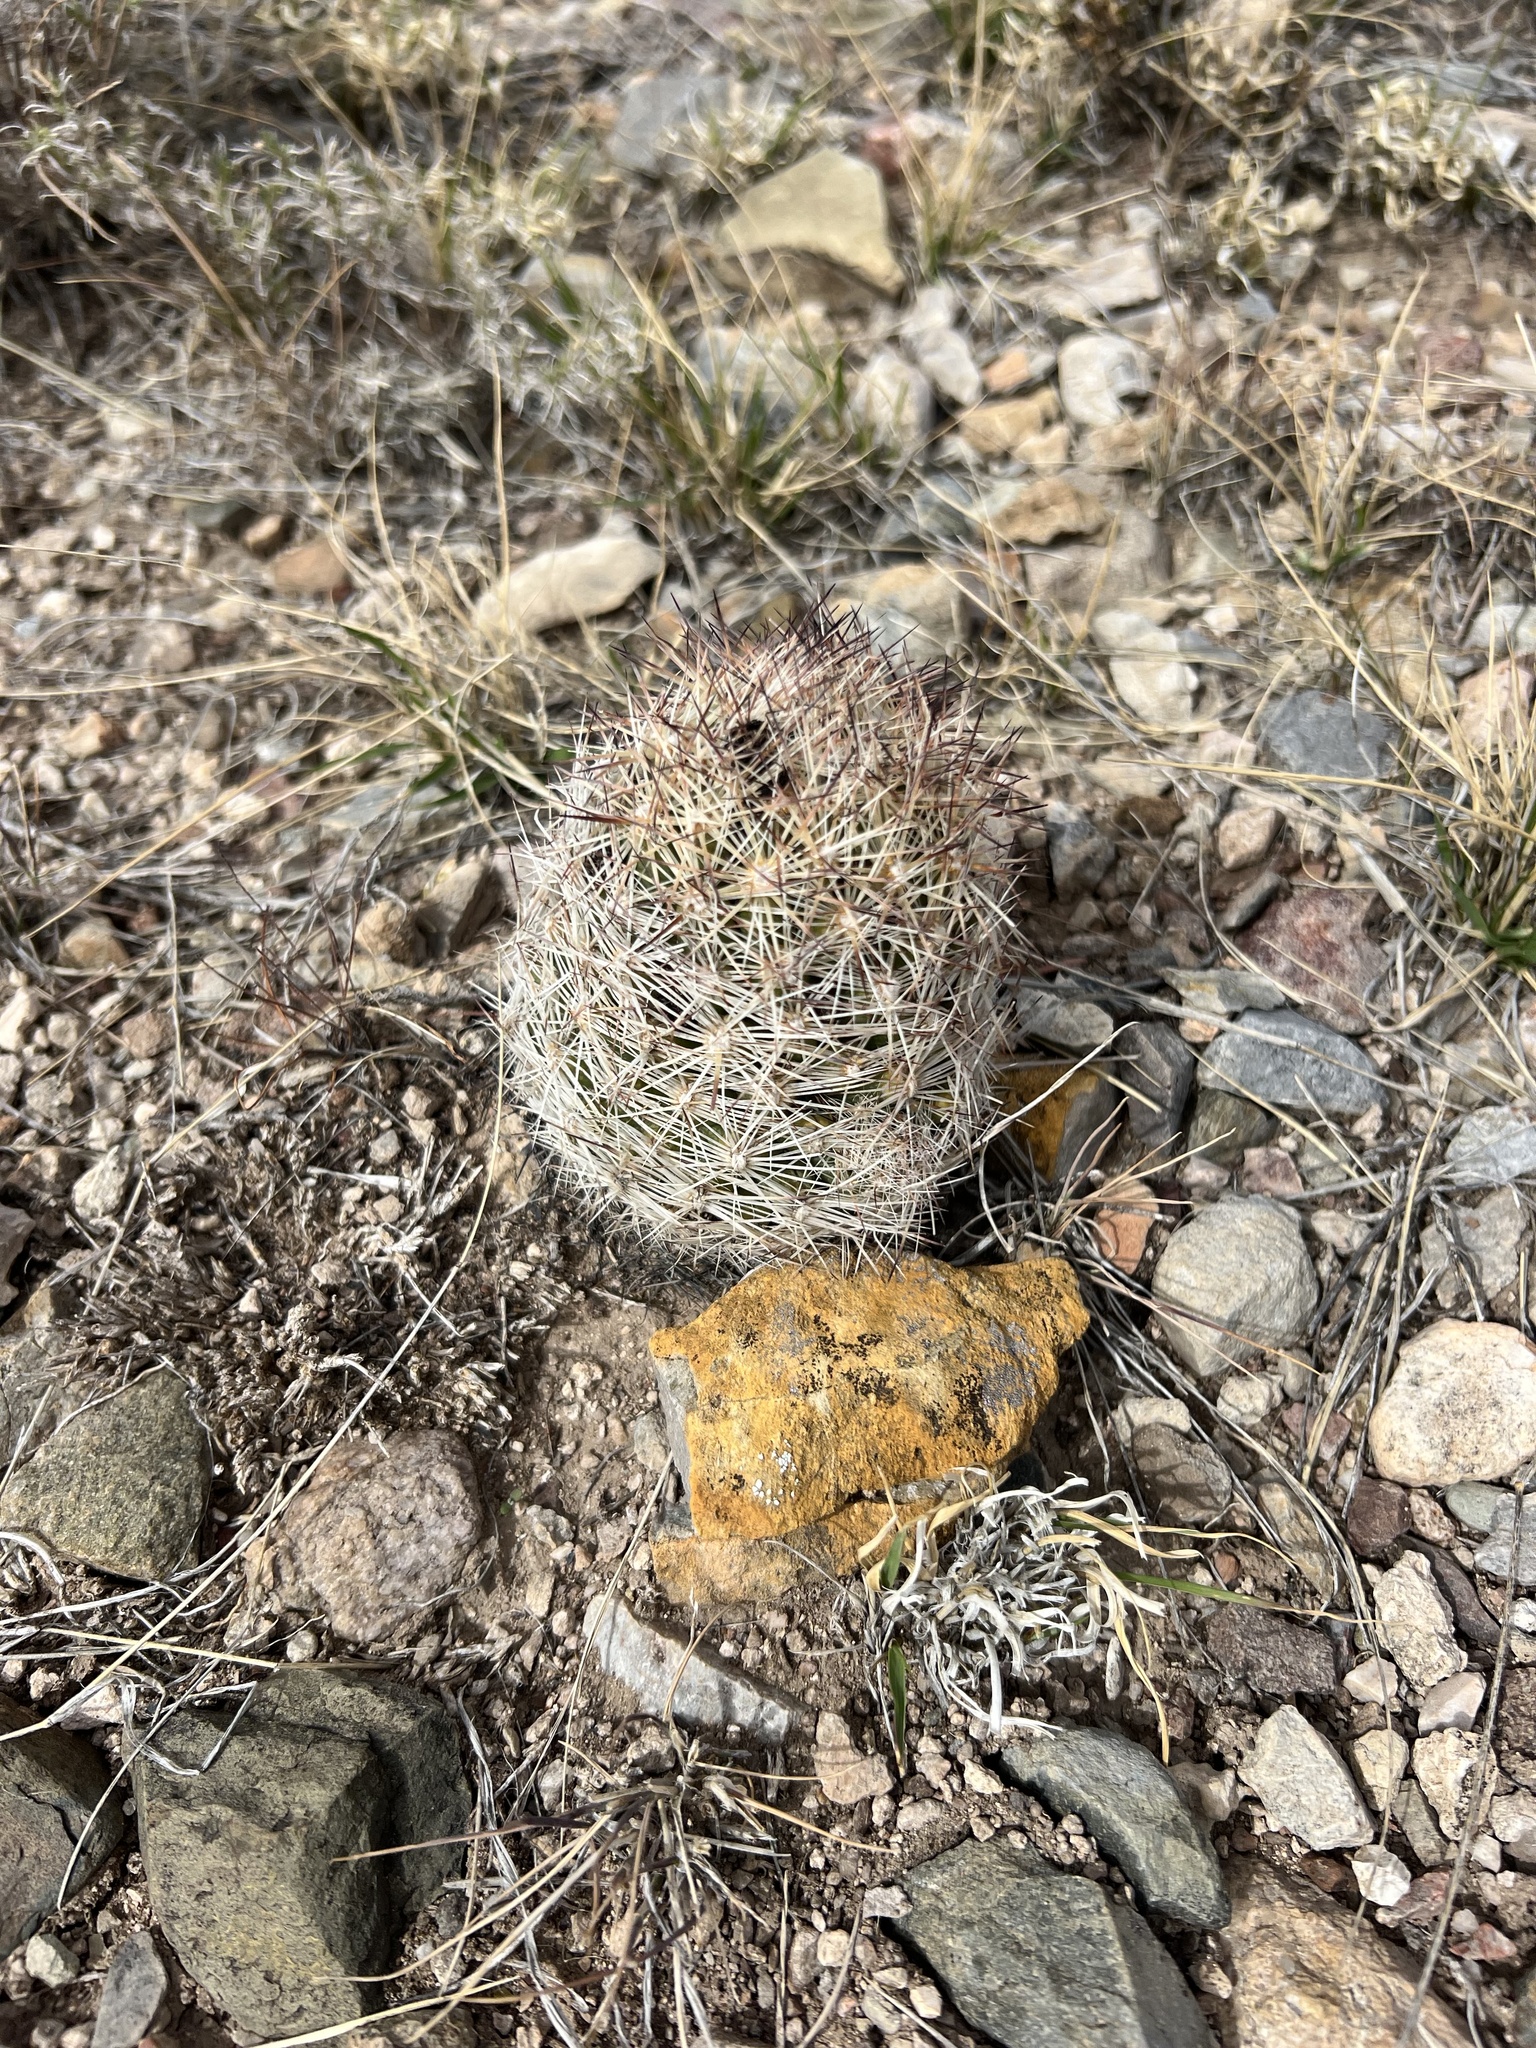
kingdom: Plantae
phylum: Tracheophyta
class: Magnoliopsida
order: Caryophyllales
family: Cactaceae
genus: Pelecyphora
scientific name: Pelecyphora vivipara
